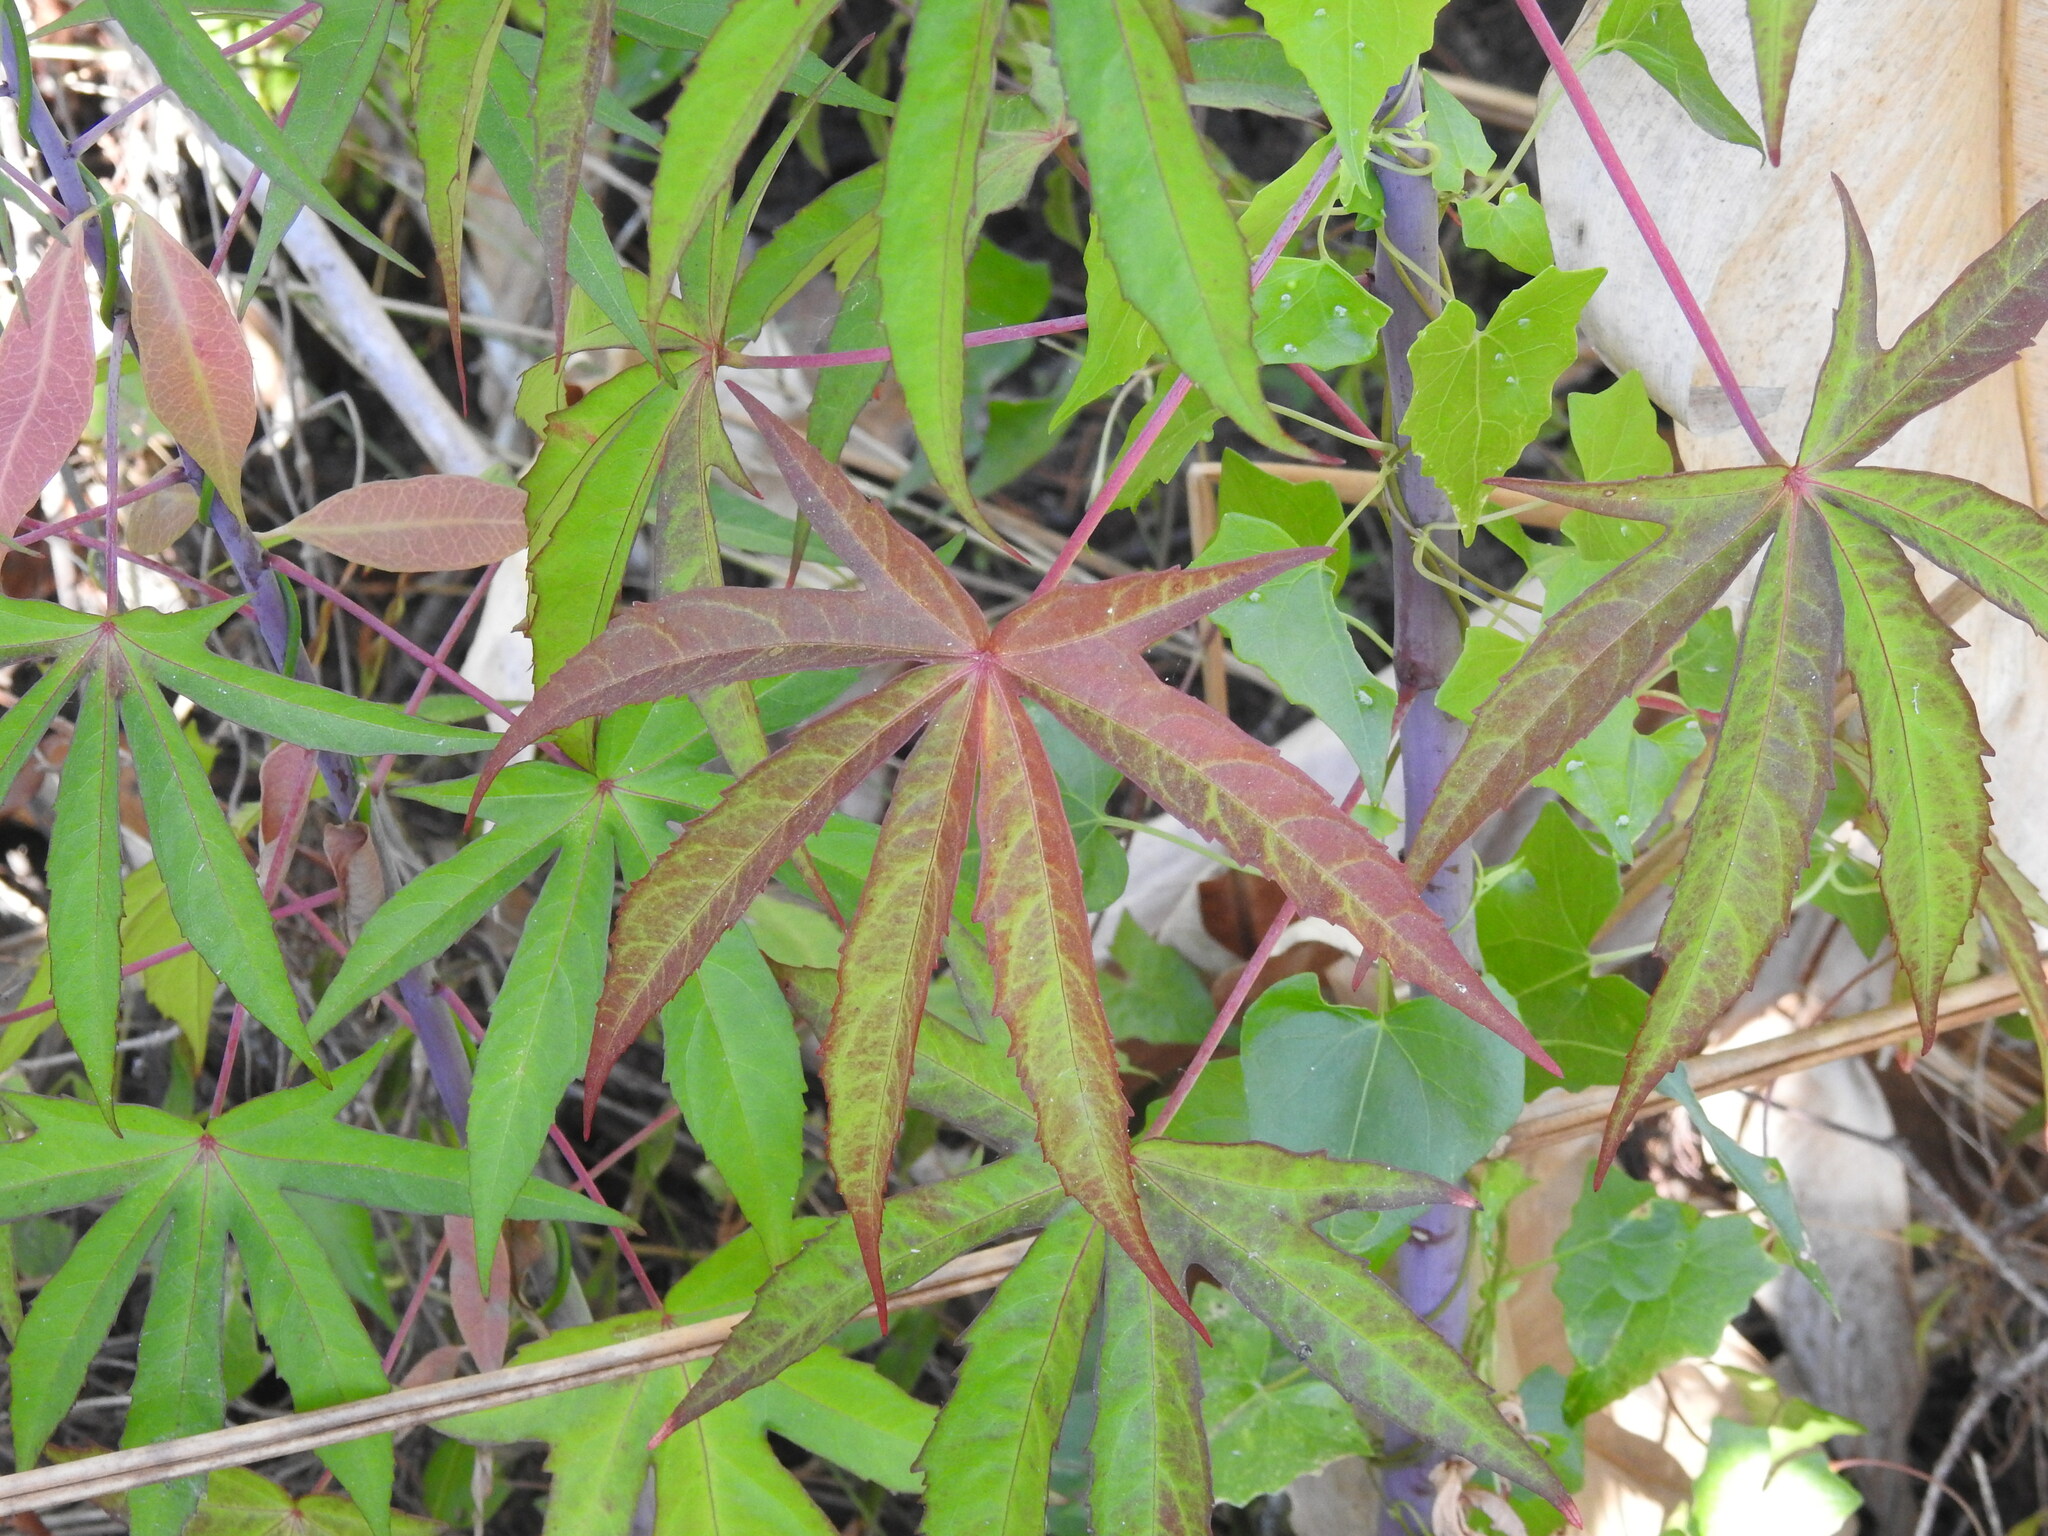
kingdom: Plantae
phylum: Tracheophyta
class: Magnoliopsida
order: Malvales
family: Malvaceae
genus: Hibiscus
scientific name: Hibiscus coccineus
